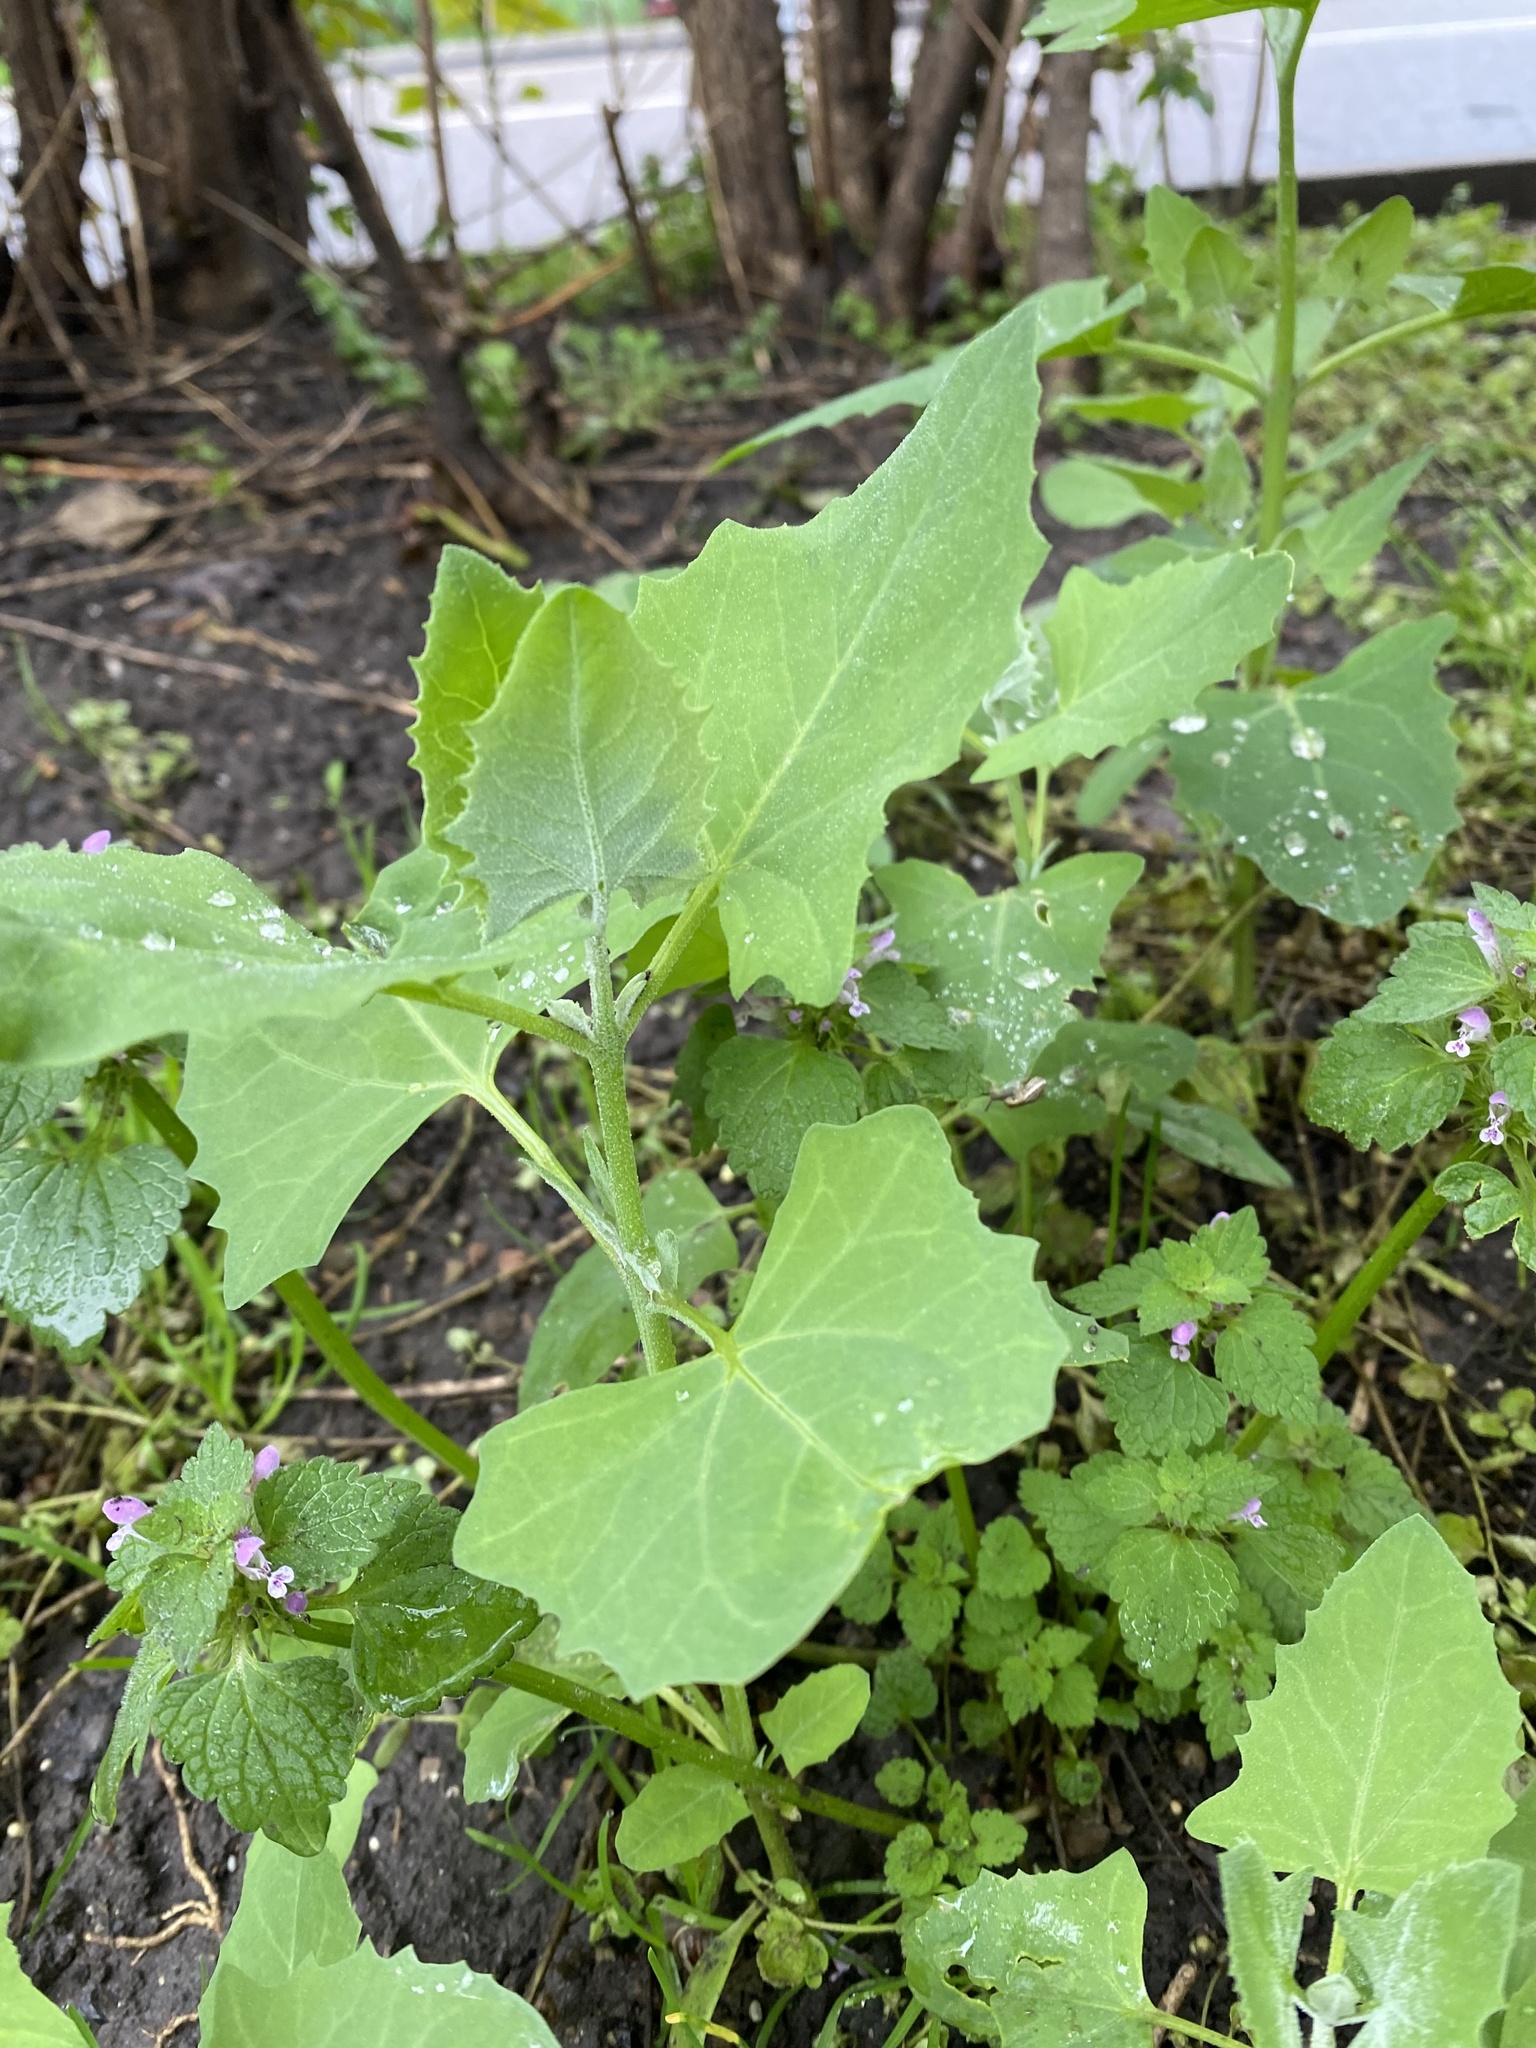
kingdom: Plantae
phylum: Tracheophyta
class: Magnoliopsida
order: Caryophyllales
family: Amaranthaceae
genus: Chenopodium
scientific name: Chenopodium album
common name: Fat-hen
